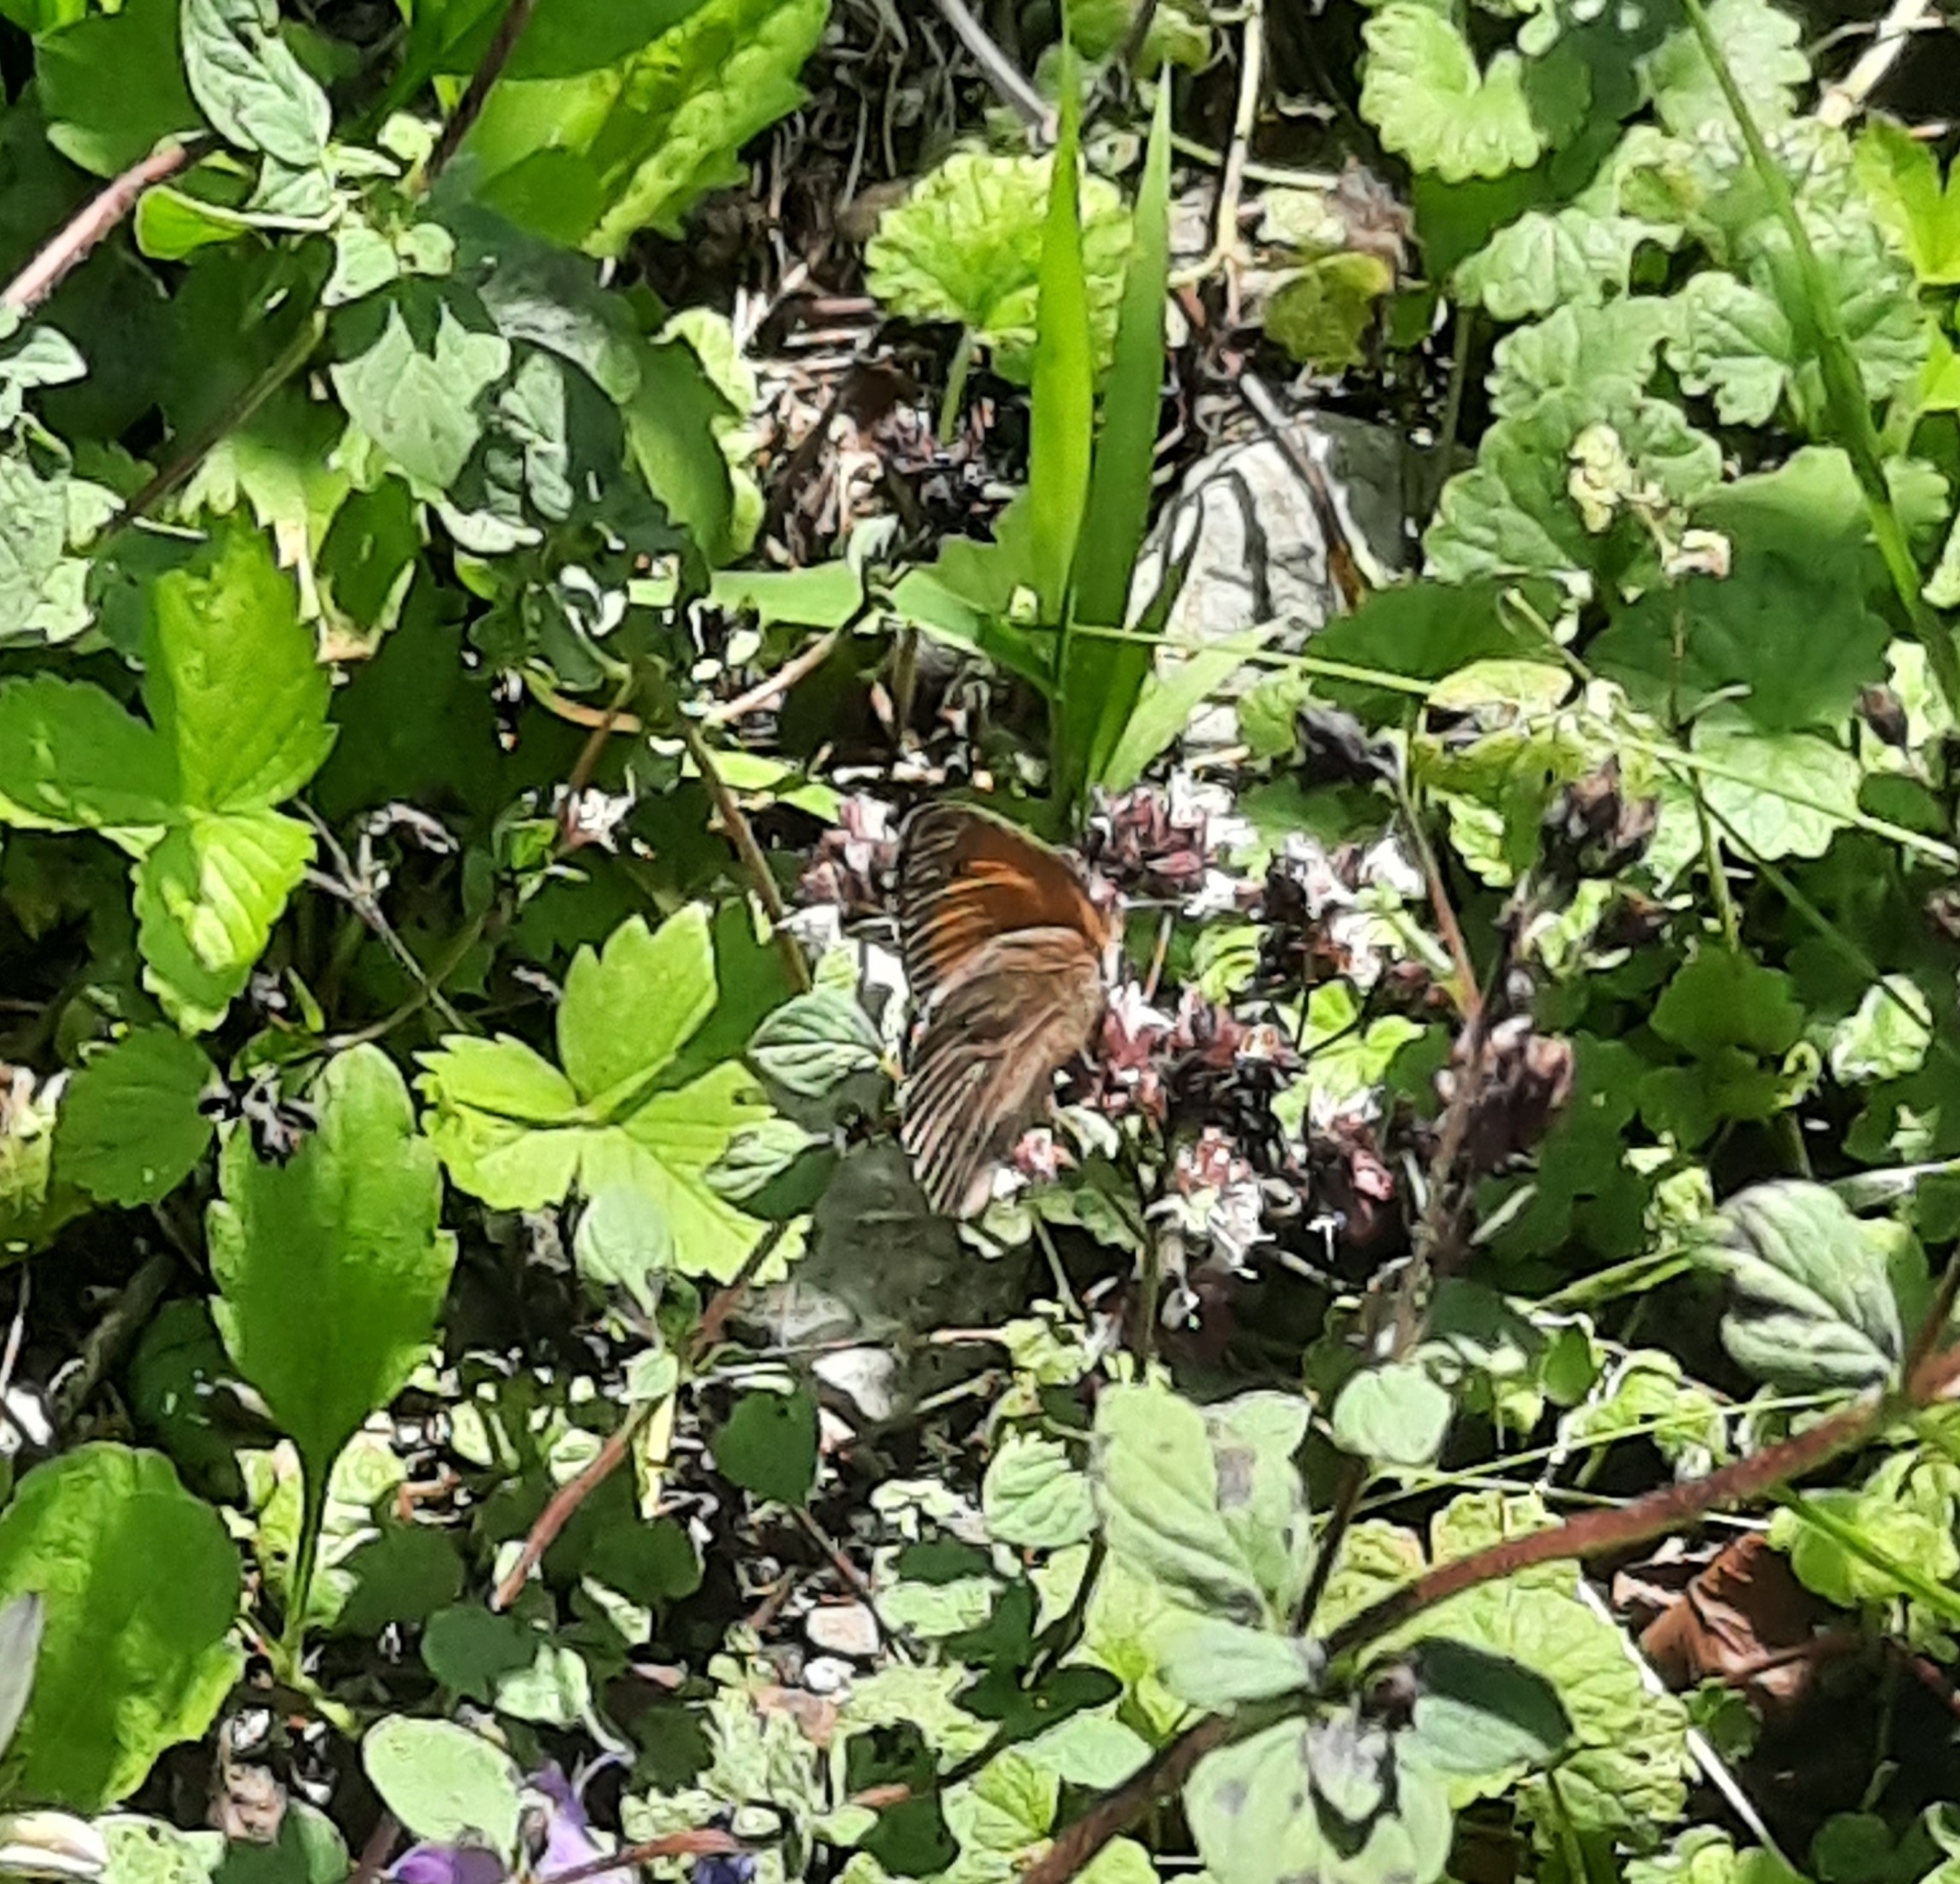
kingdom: Animalia
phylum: Arthropoda
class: Insecta
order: Lepidoptera
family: Nymphalidae
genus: Maniola
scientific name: Maniola jurtina
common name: Meadow brown
